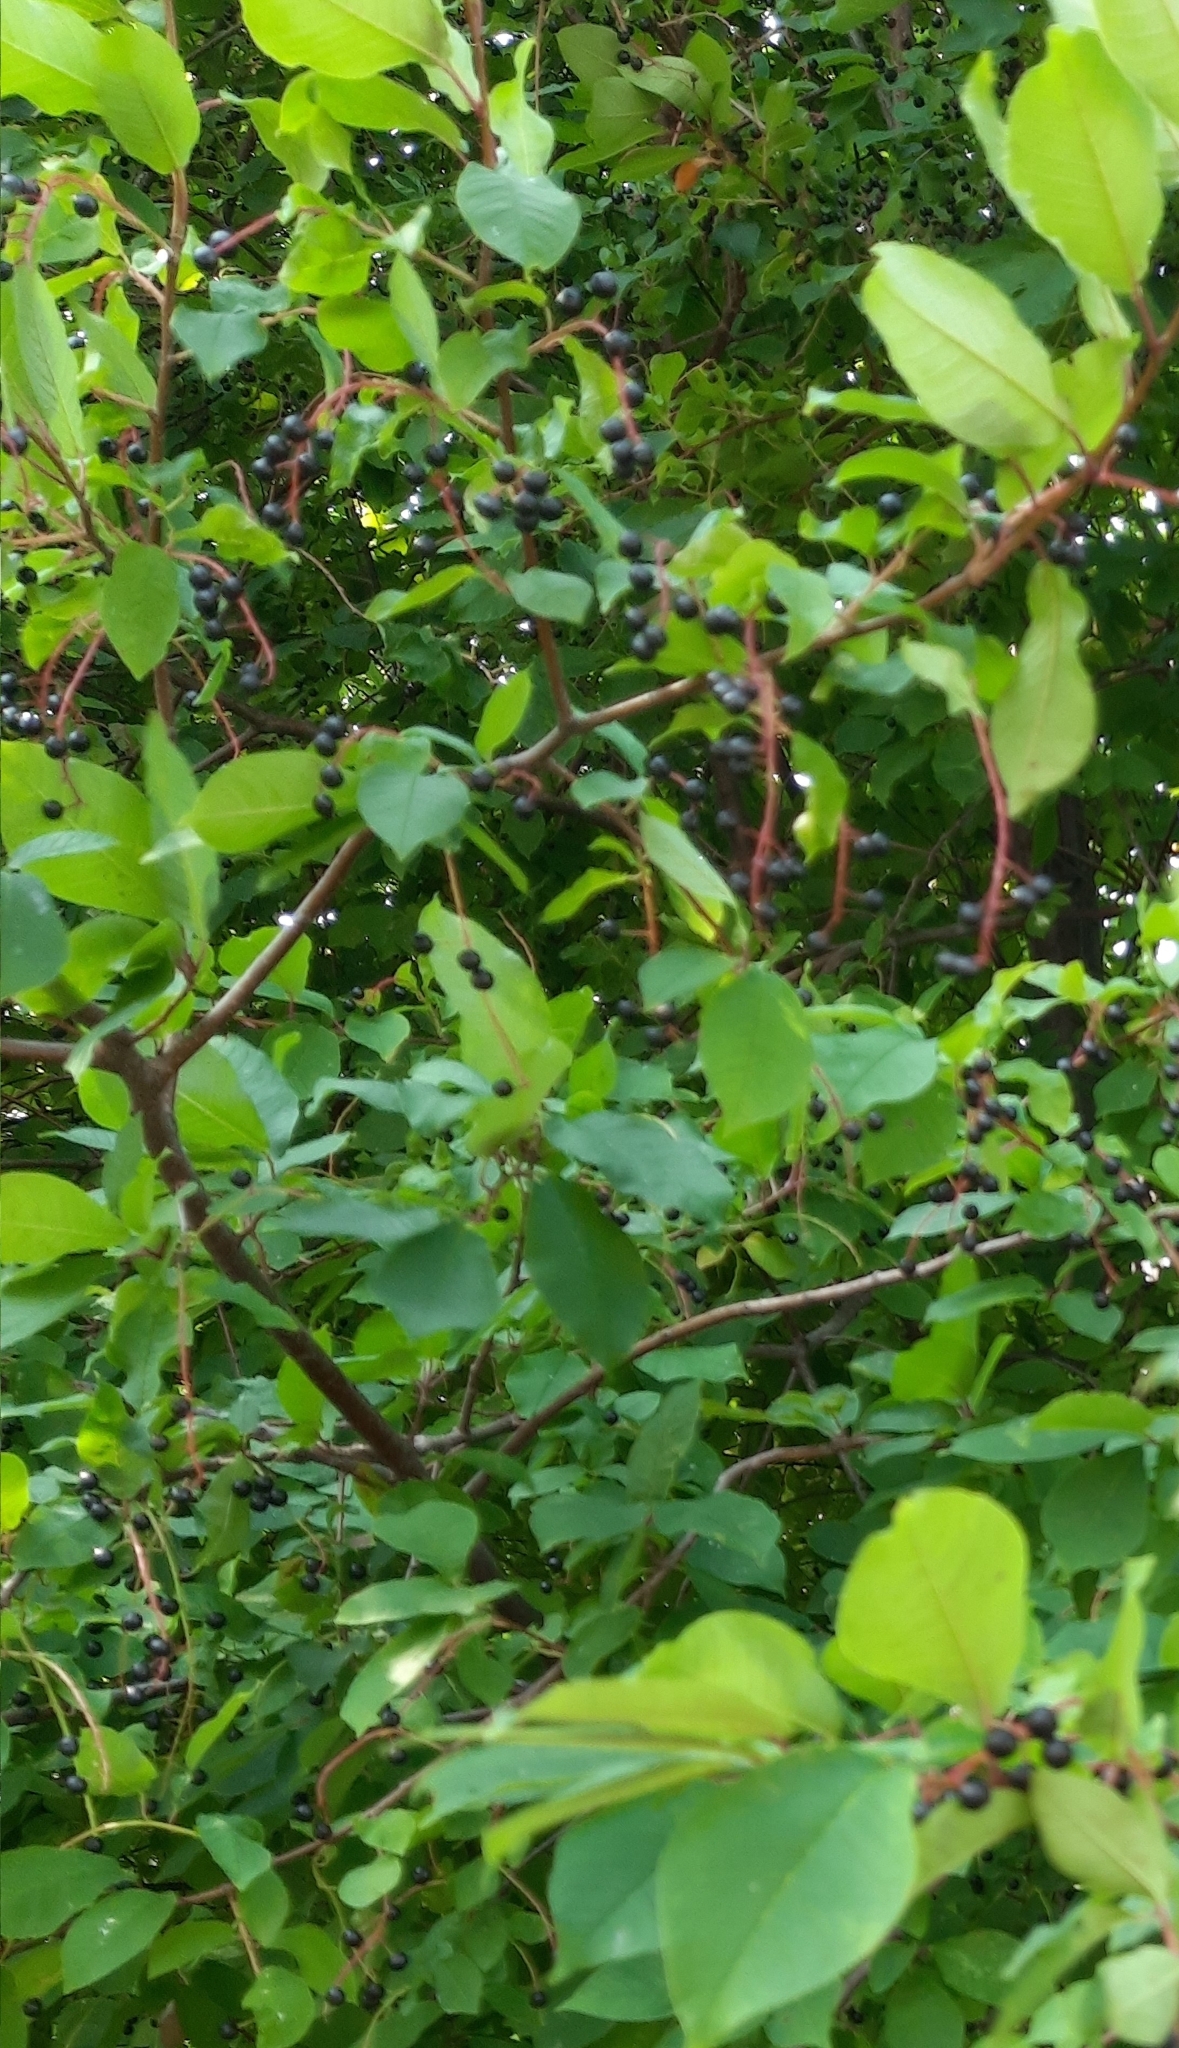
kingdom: Plantae
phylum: Tracheophyta
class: Magnoliopsida
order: Rosales
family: Rosaceae
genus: Prunus
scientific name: Prunus padus
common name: Bird cherry
